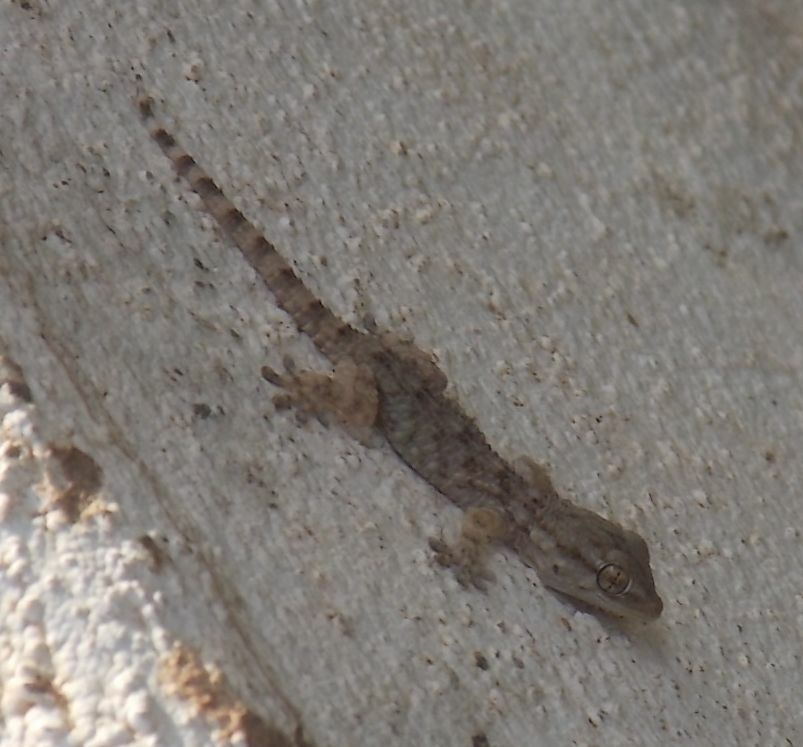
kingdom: Animalia
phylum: Chordata
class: Squamata
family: Phyllodactylidae
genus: Tarentola
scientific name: Tarentola mauritanica
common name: Moorish gecko
